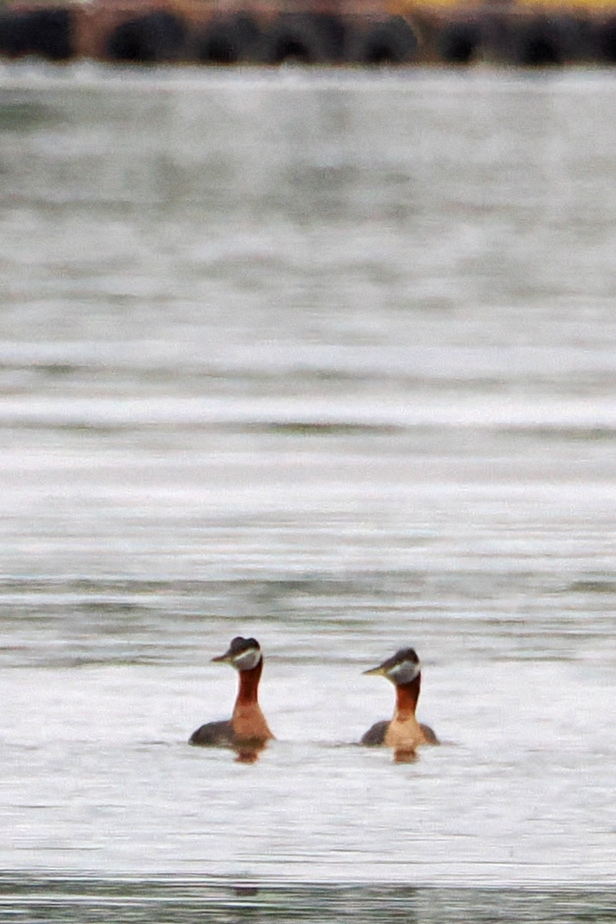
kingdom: Animalia
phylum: Chordata
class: Aves
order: Podicipediformes
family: Podicipedidae
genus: Podiceps
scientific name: Podiceps grisegena
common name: Red-necked grebe
